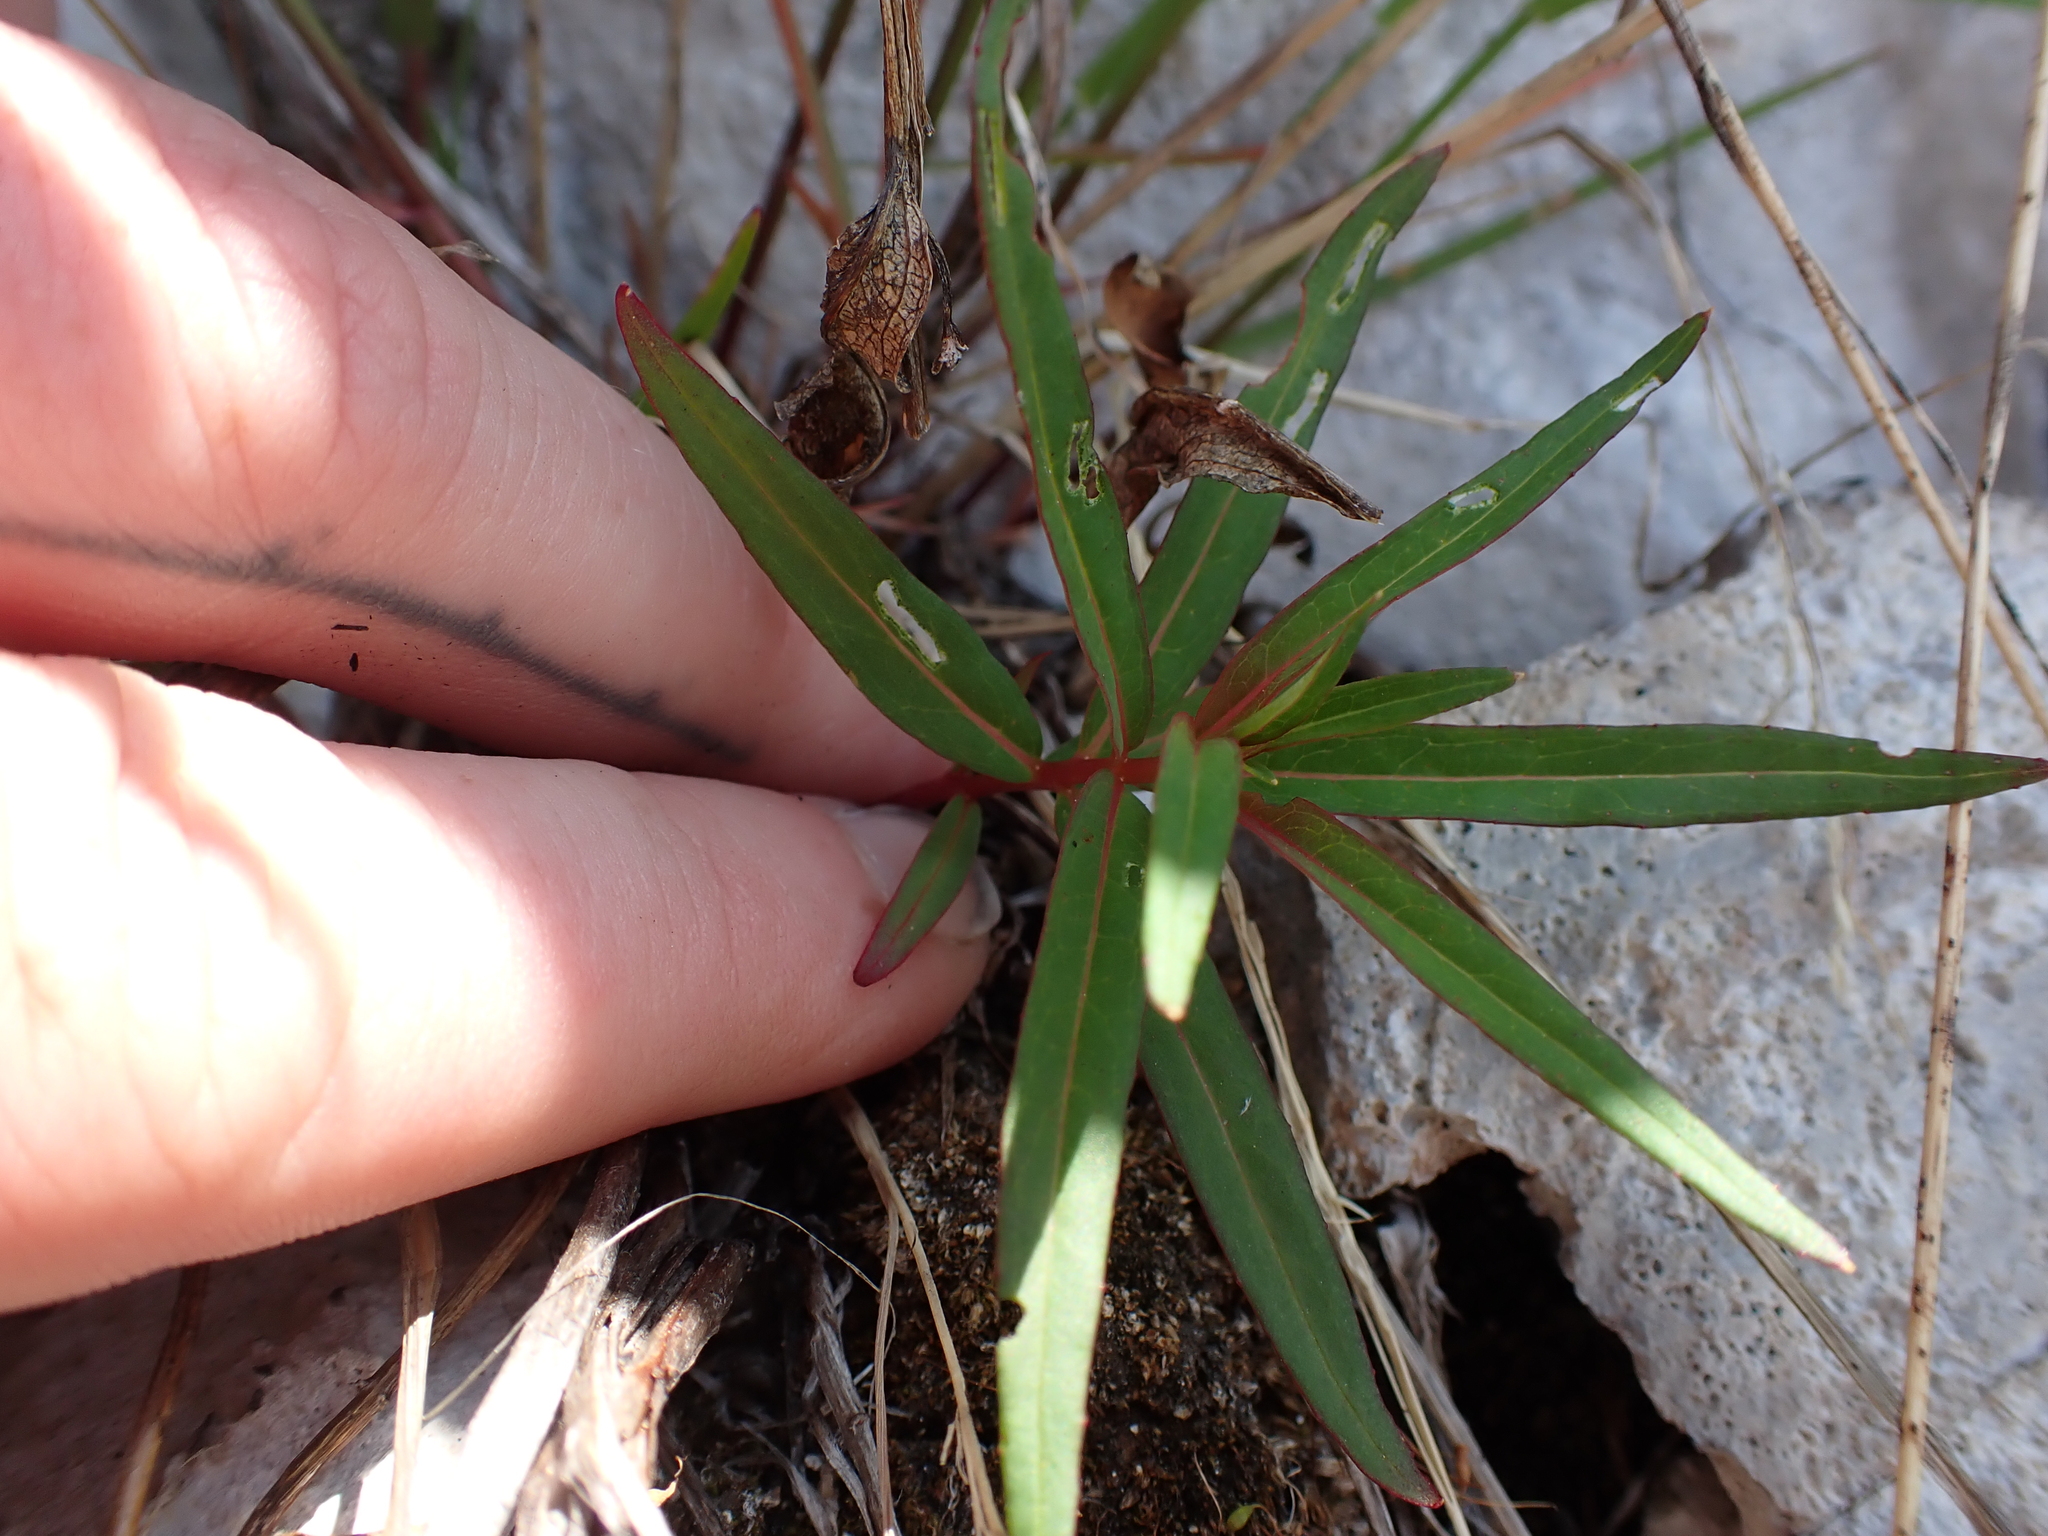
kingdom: Plantae
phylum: Tracheophyta
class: Magnoliopsida
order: Myrtales
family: Onagraceae
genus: Chamaenerion
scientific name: Chamaenerion angustifolium
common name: Fireweed
